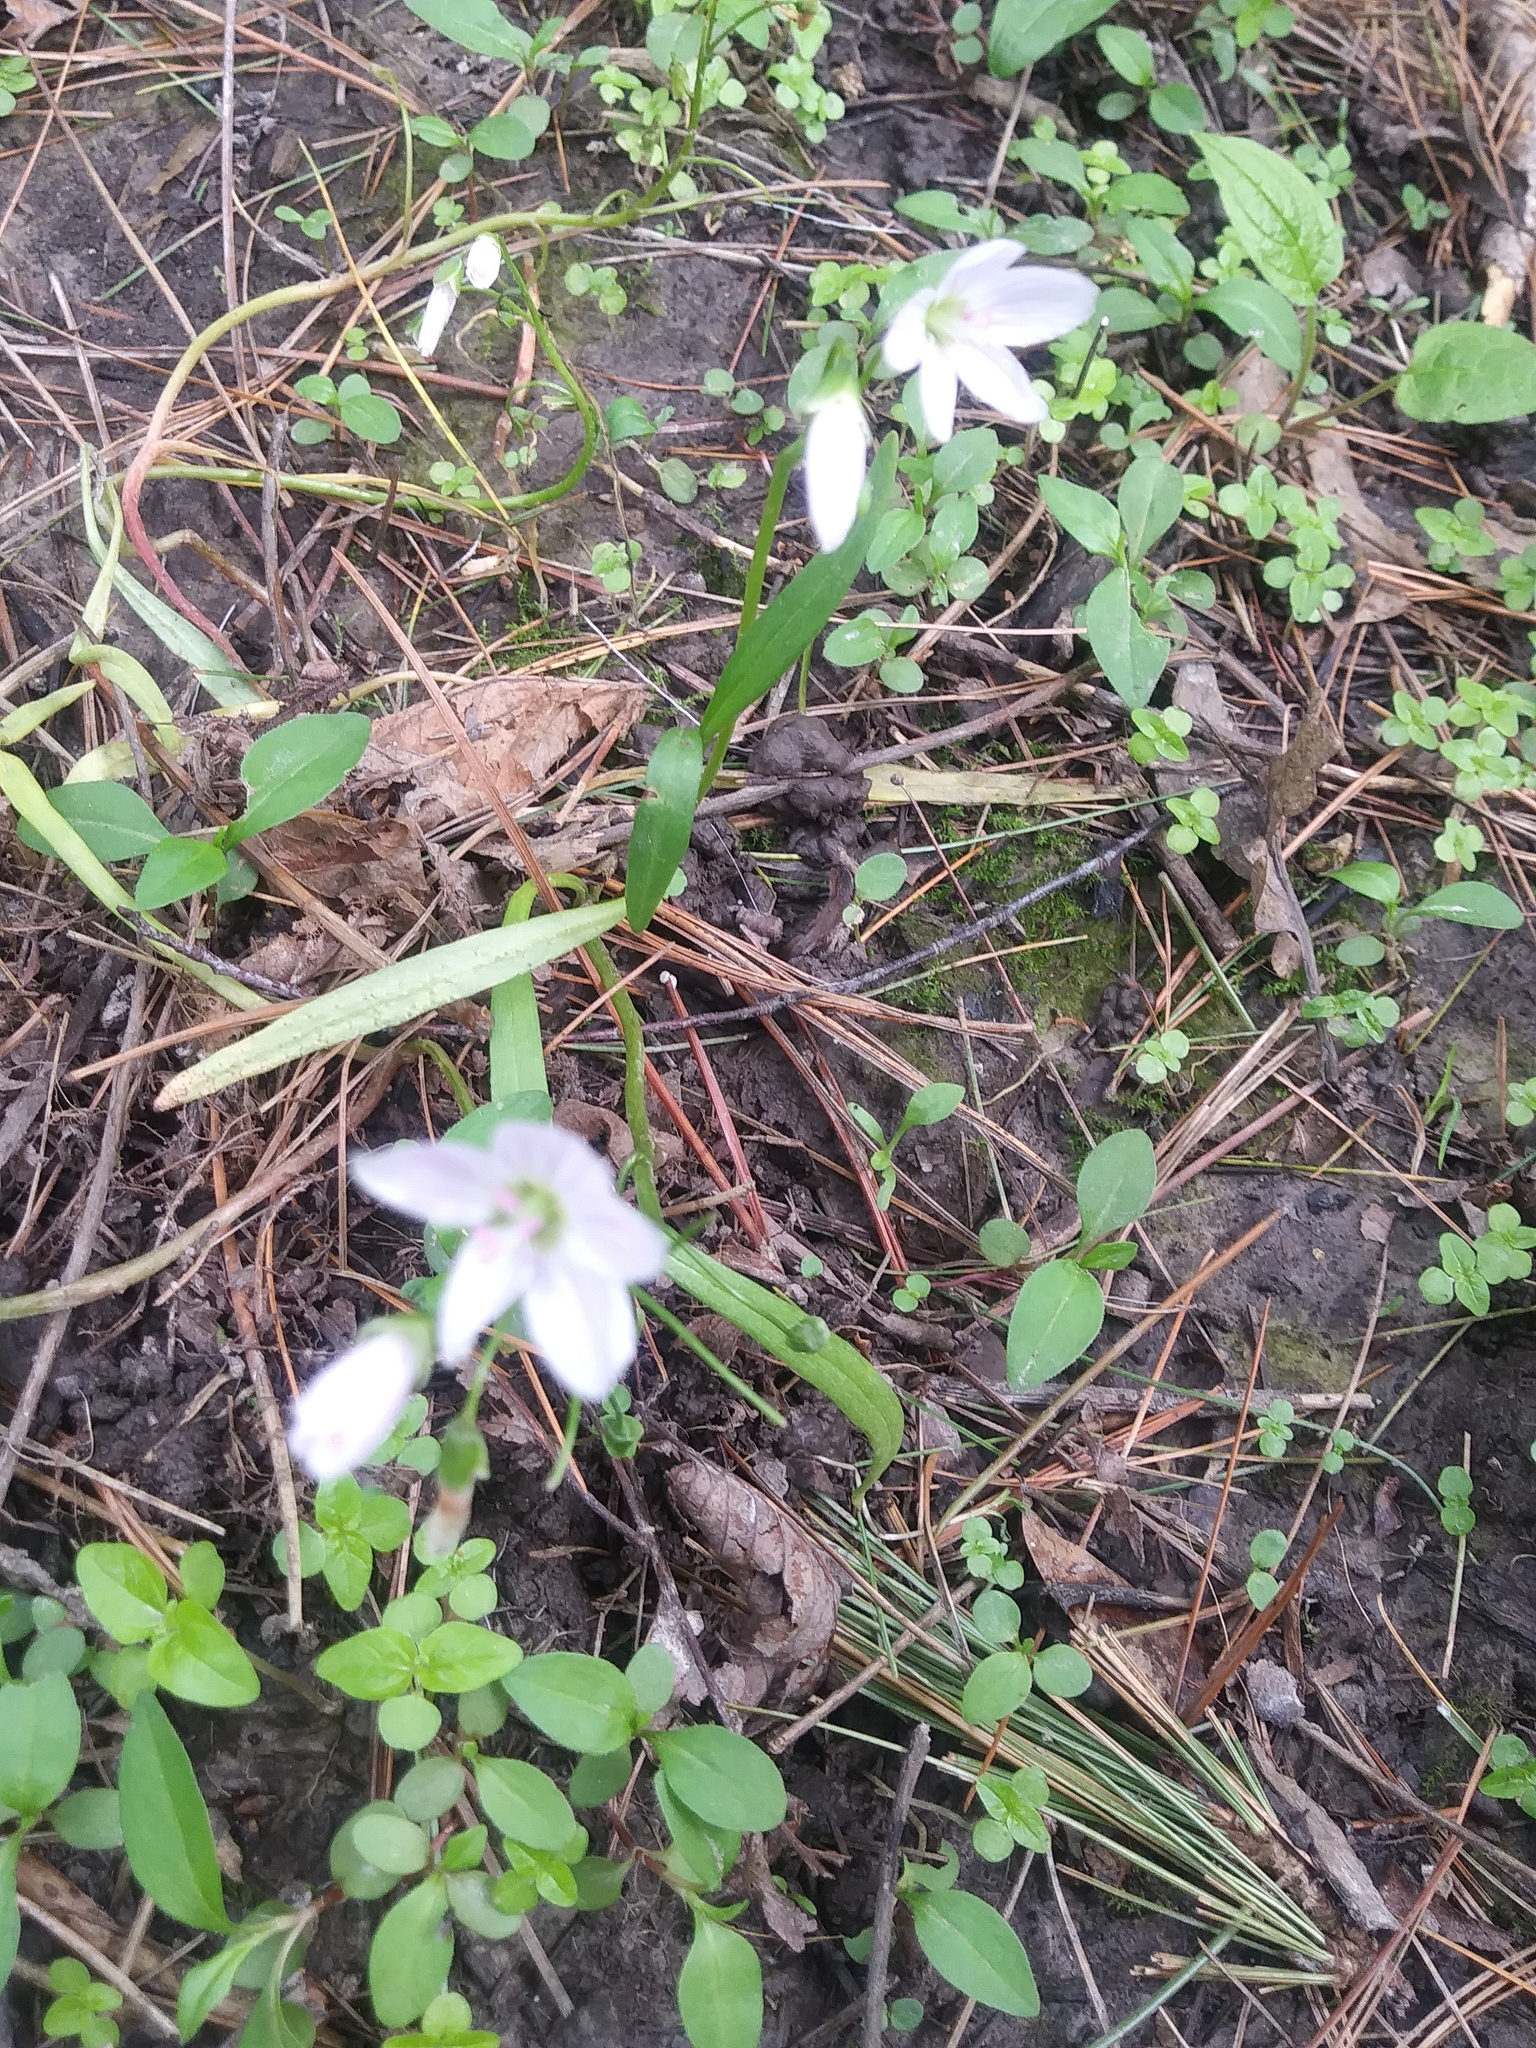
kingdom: Plantae
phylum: Tracheophyta
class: Magnoliopsida
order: Caryophyllales
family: Montiaceae
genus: Claytonia
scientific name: Claytonia virginica
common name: Virginia springbeauty
